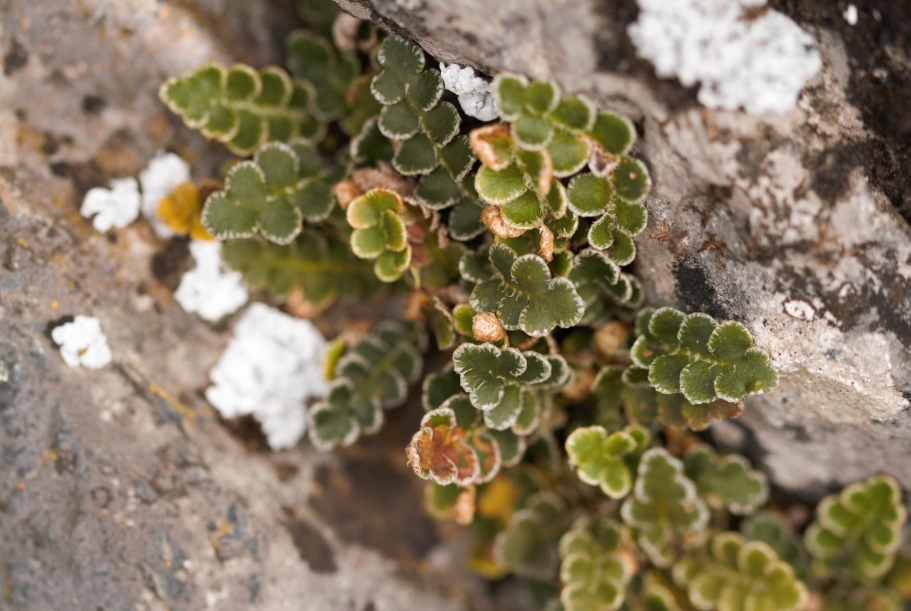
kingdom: Plantae
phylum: Tracheophyta
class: Polypodiopsida
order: Polypodiales
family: Aspleniaceae
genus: Asplenium
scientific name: Asplenium ceterach
